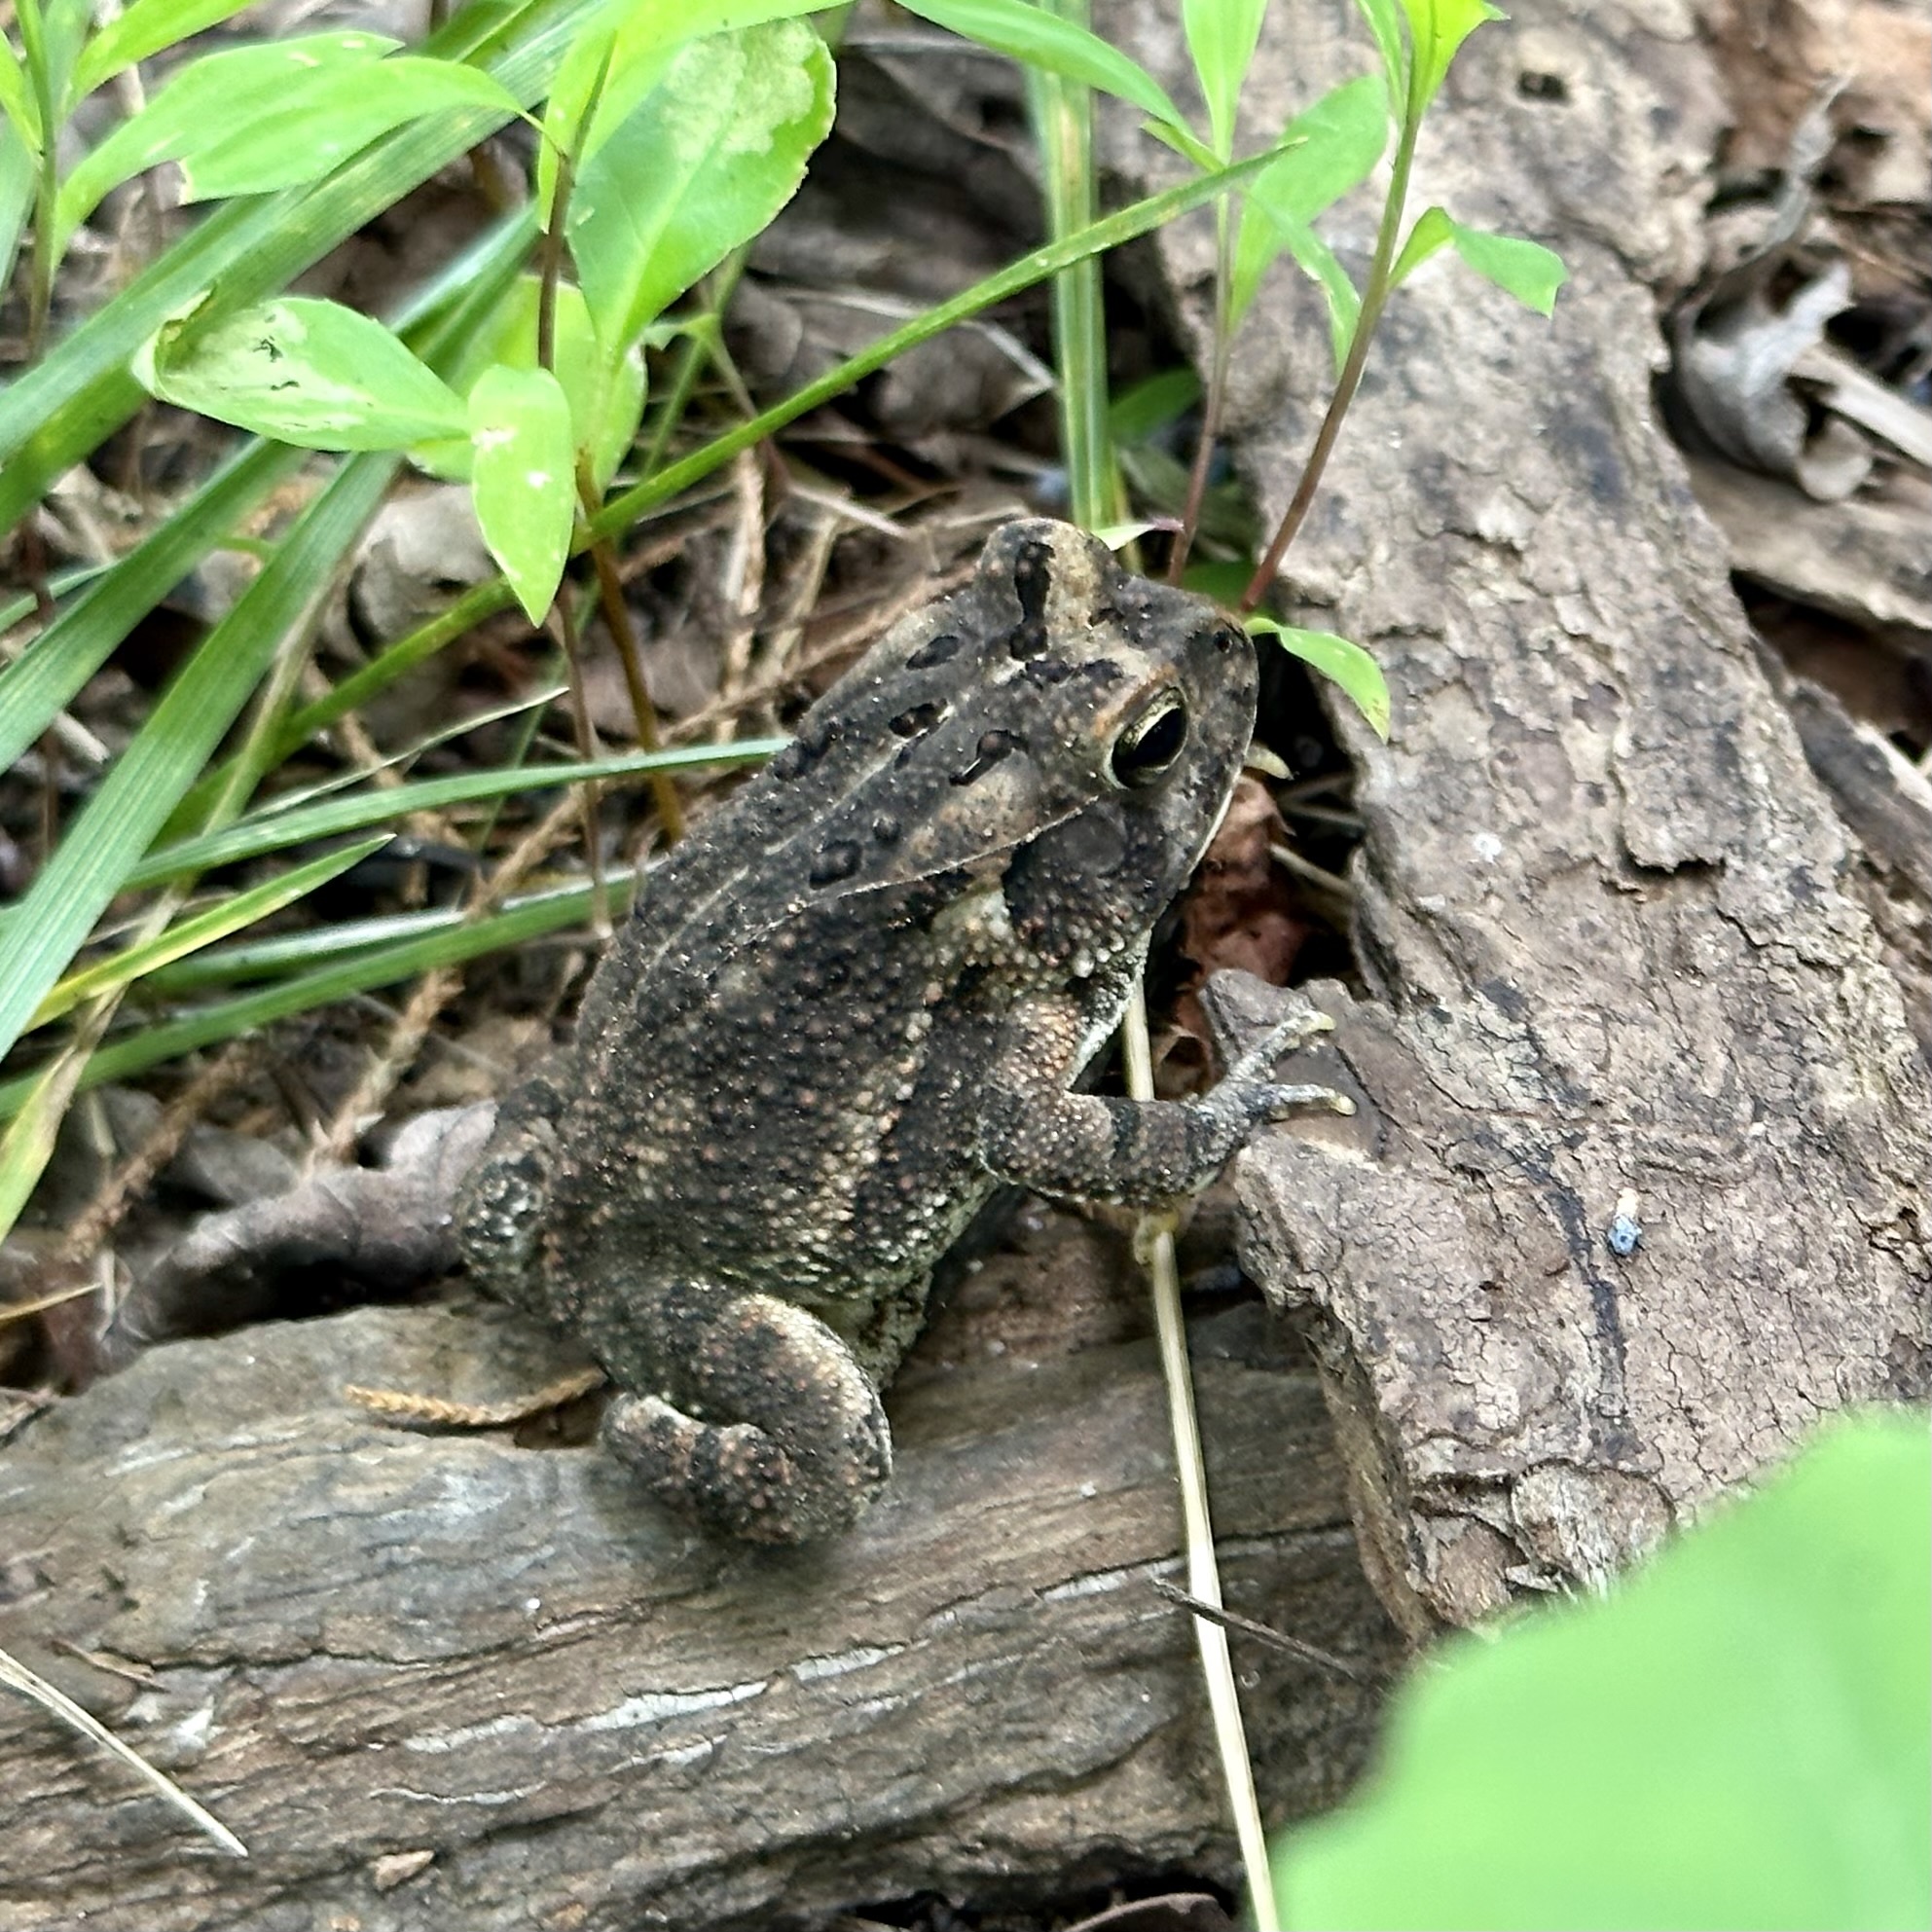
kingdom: Animalia
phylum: Chordata
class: Amphibia
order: Anura
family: Bufonidae
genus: Anaxyrus
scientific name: Anaxyrus fowleri
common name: Fowler's toad
